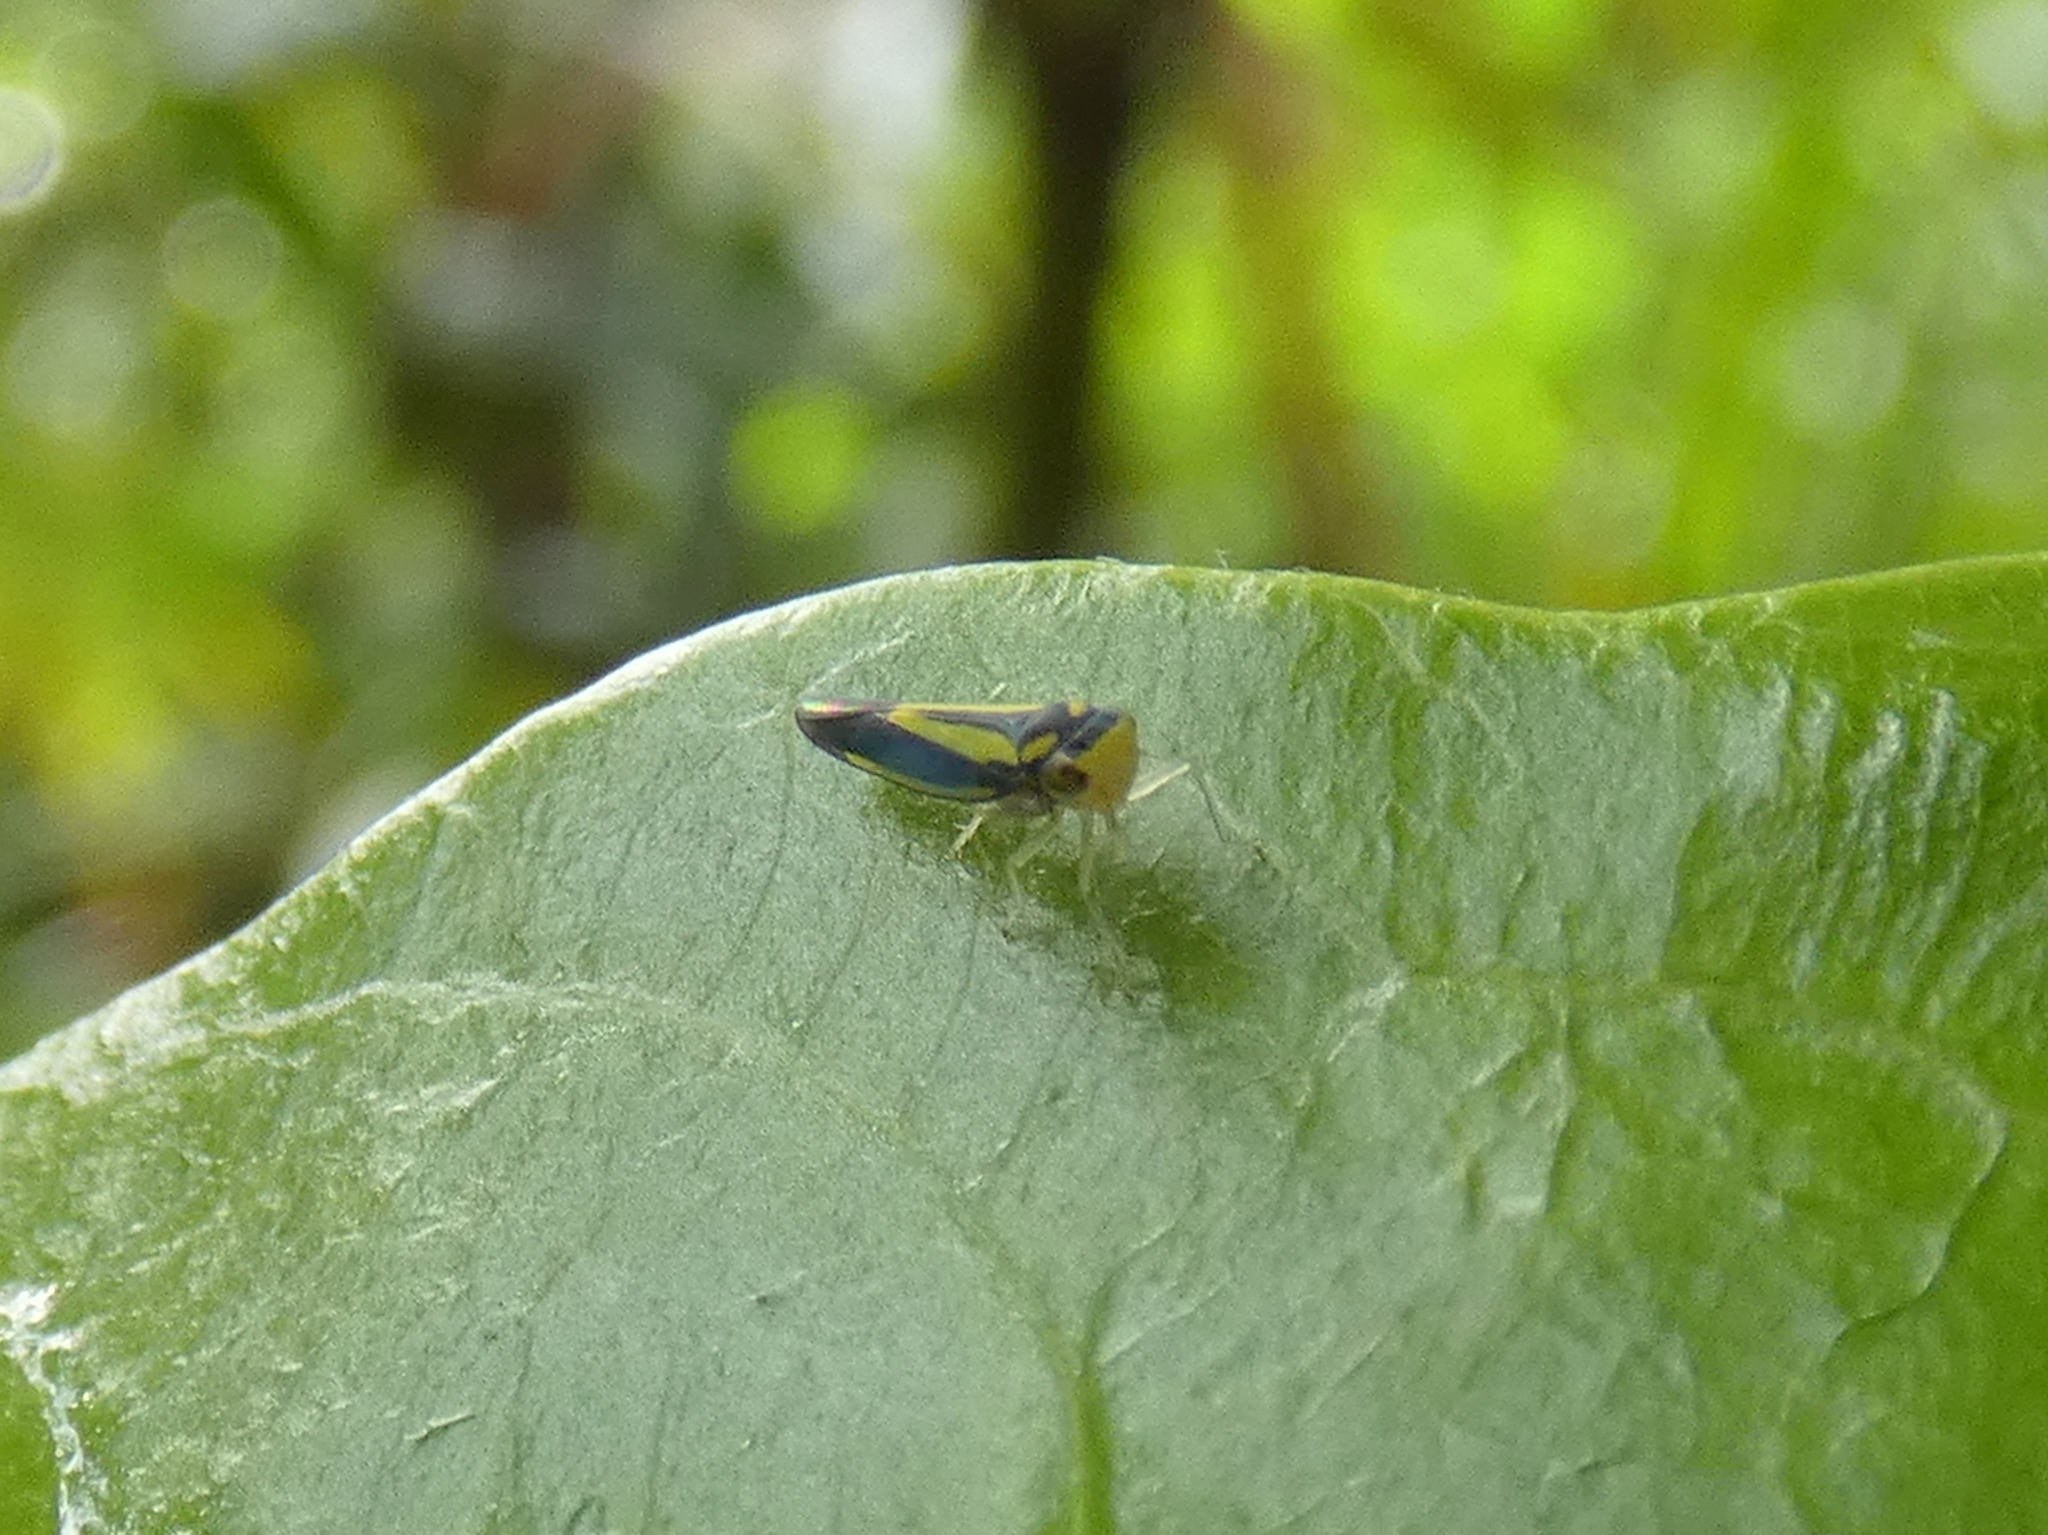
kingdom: Animalia
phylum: Arthropoda
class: Insecta
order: Hemiptera
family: Cicadellidae
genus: Ishidaella
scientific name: Ishidaella anemolua
